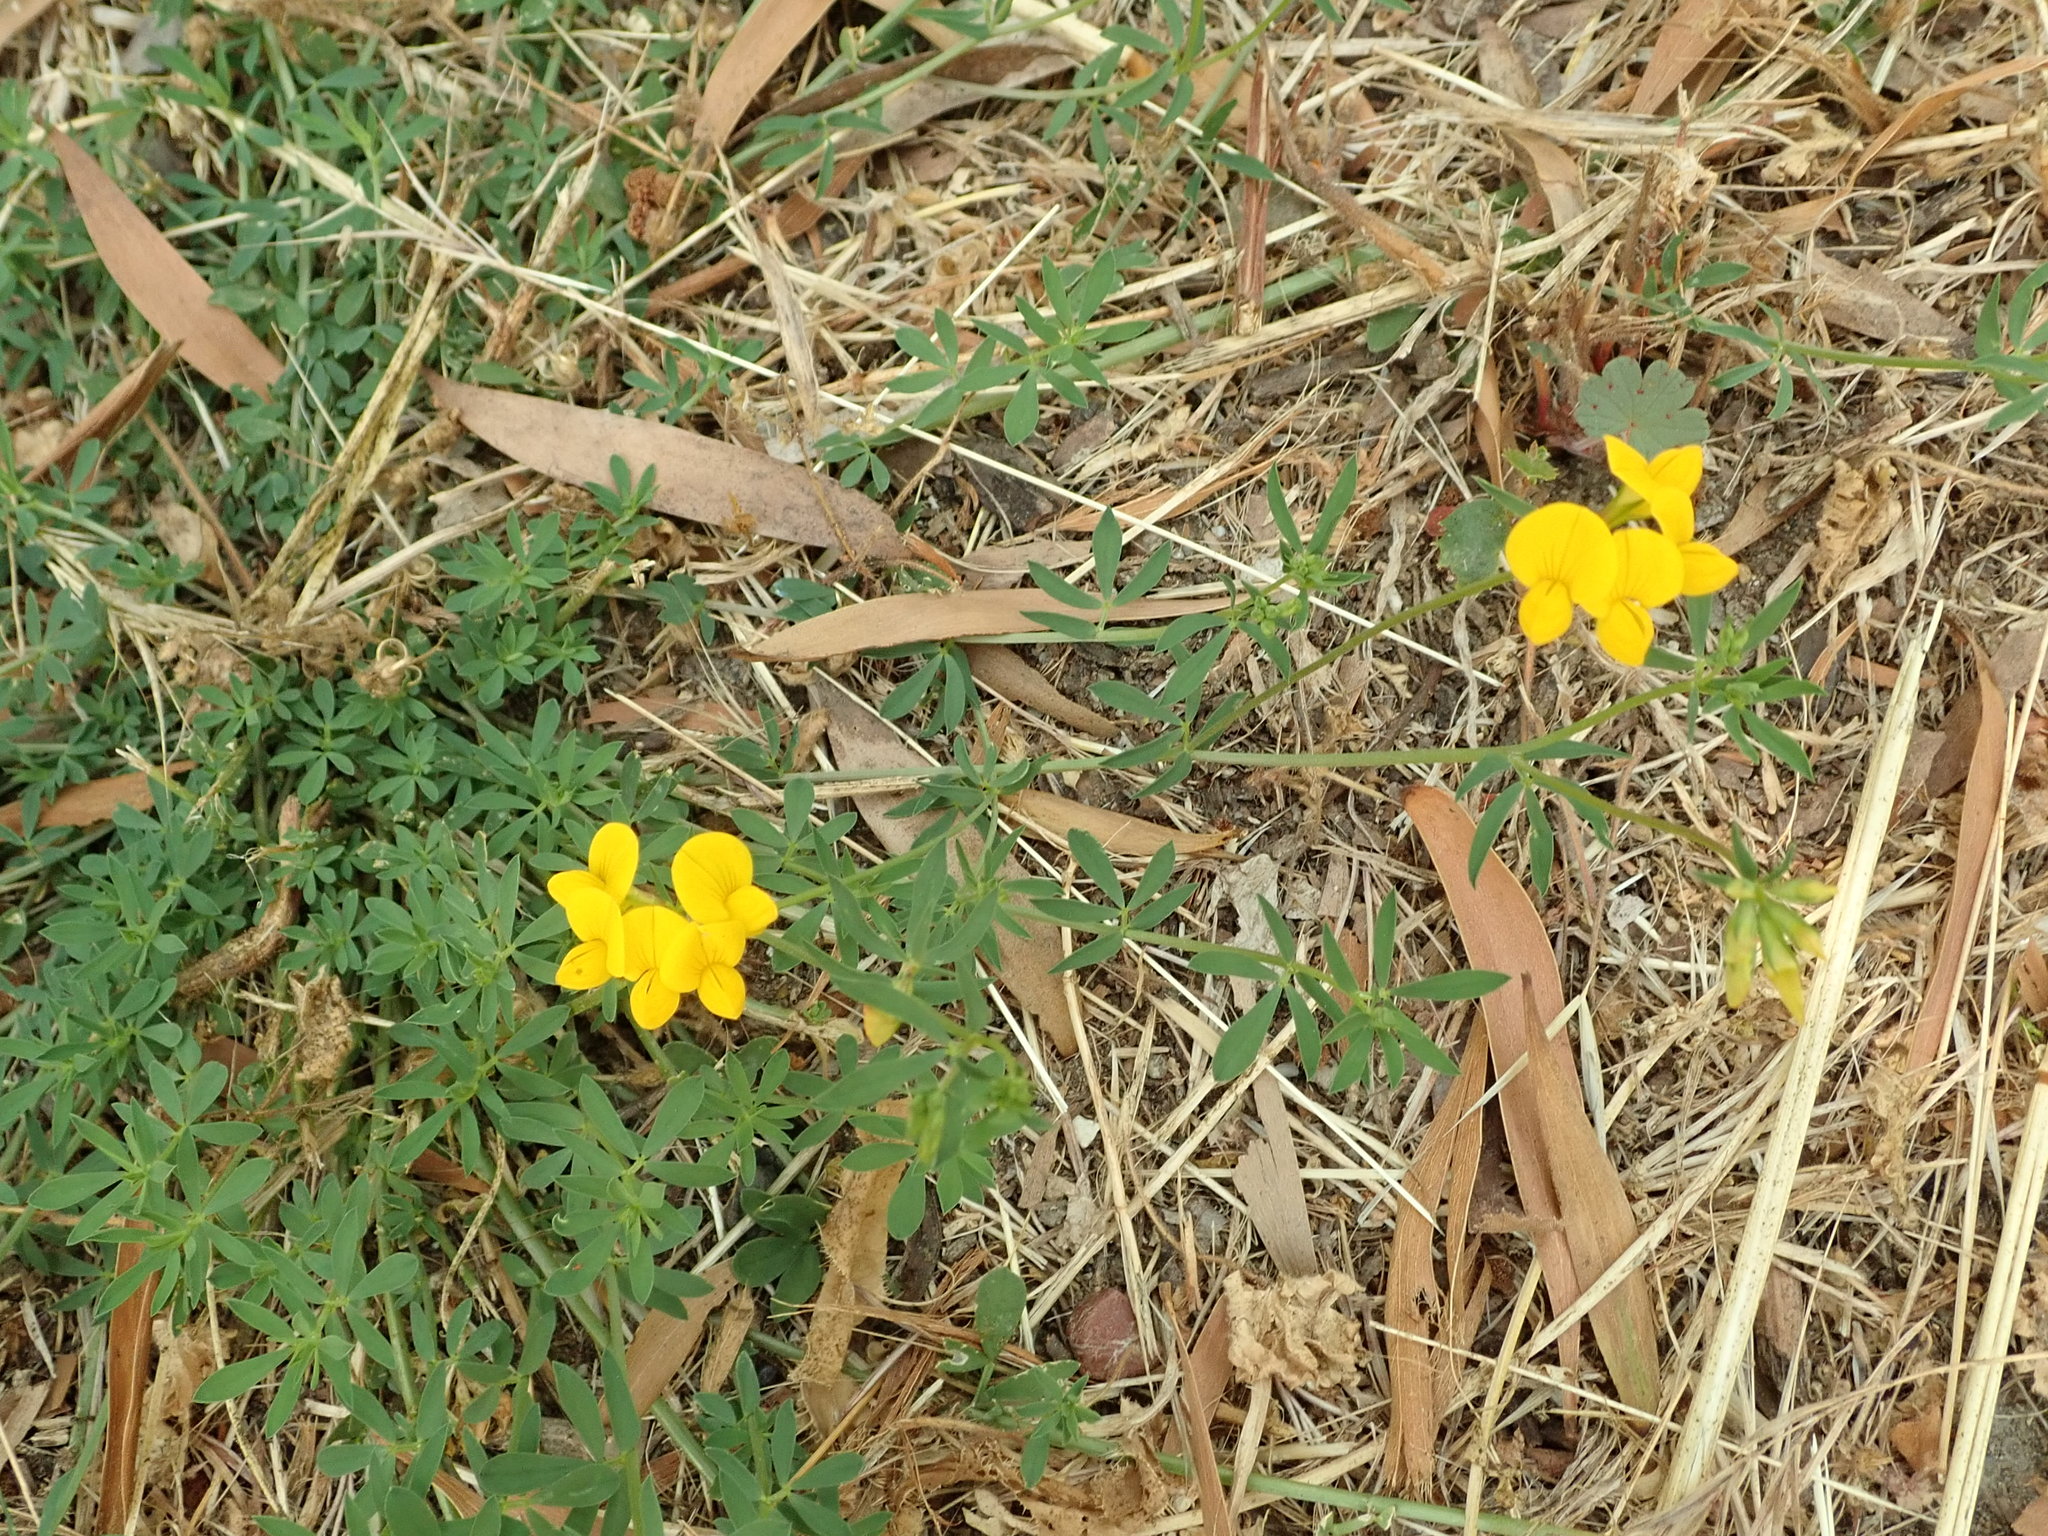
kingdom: Plantae
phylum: Tracheophyta
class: Magnoliopsida
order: Fabales
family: Fabaceae
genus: Lotus
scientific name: Lotus corniculatus
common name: Common bird's-foot-trefoil
